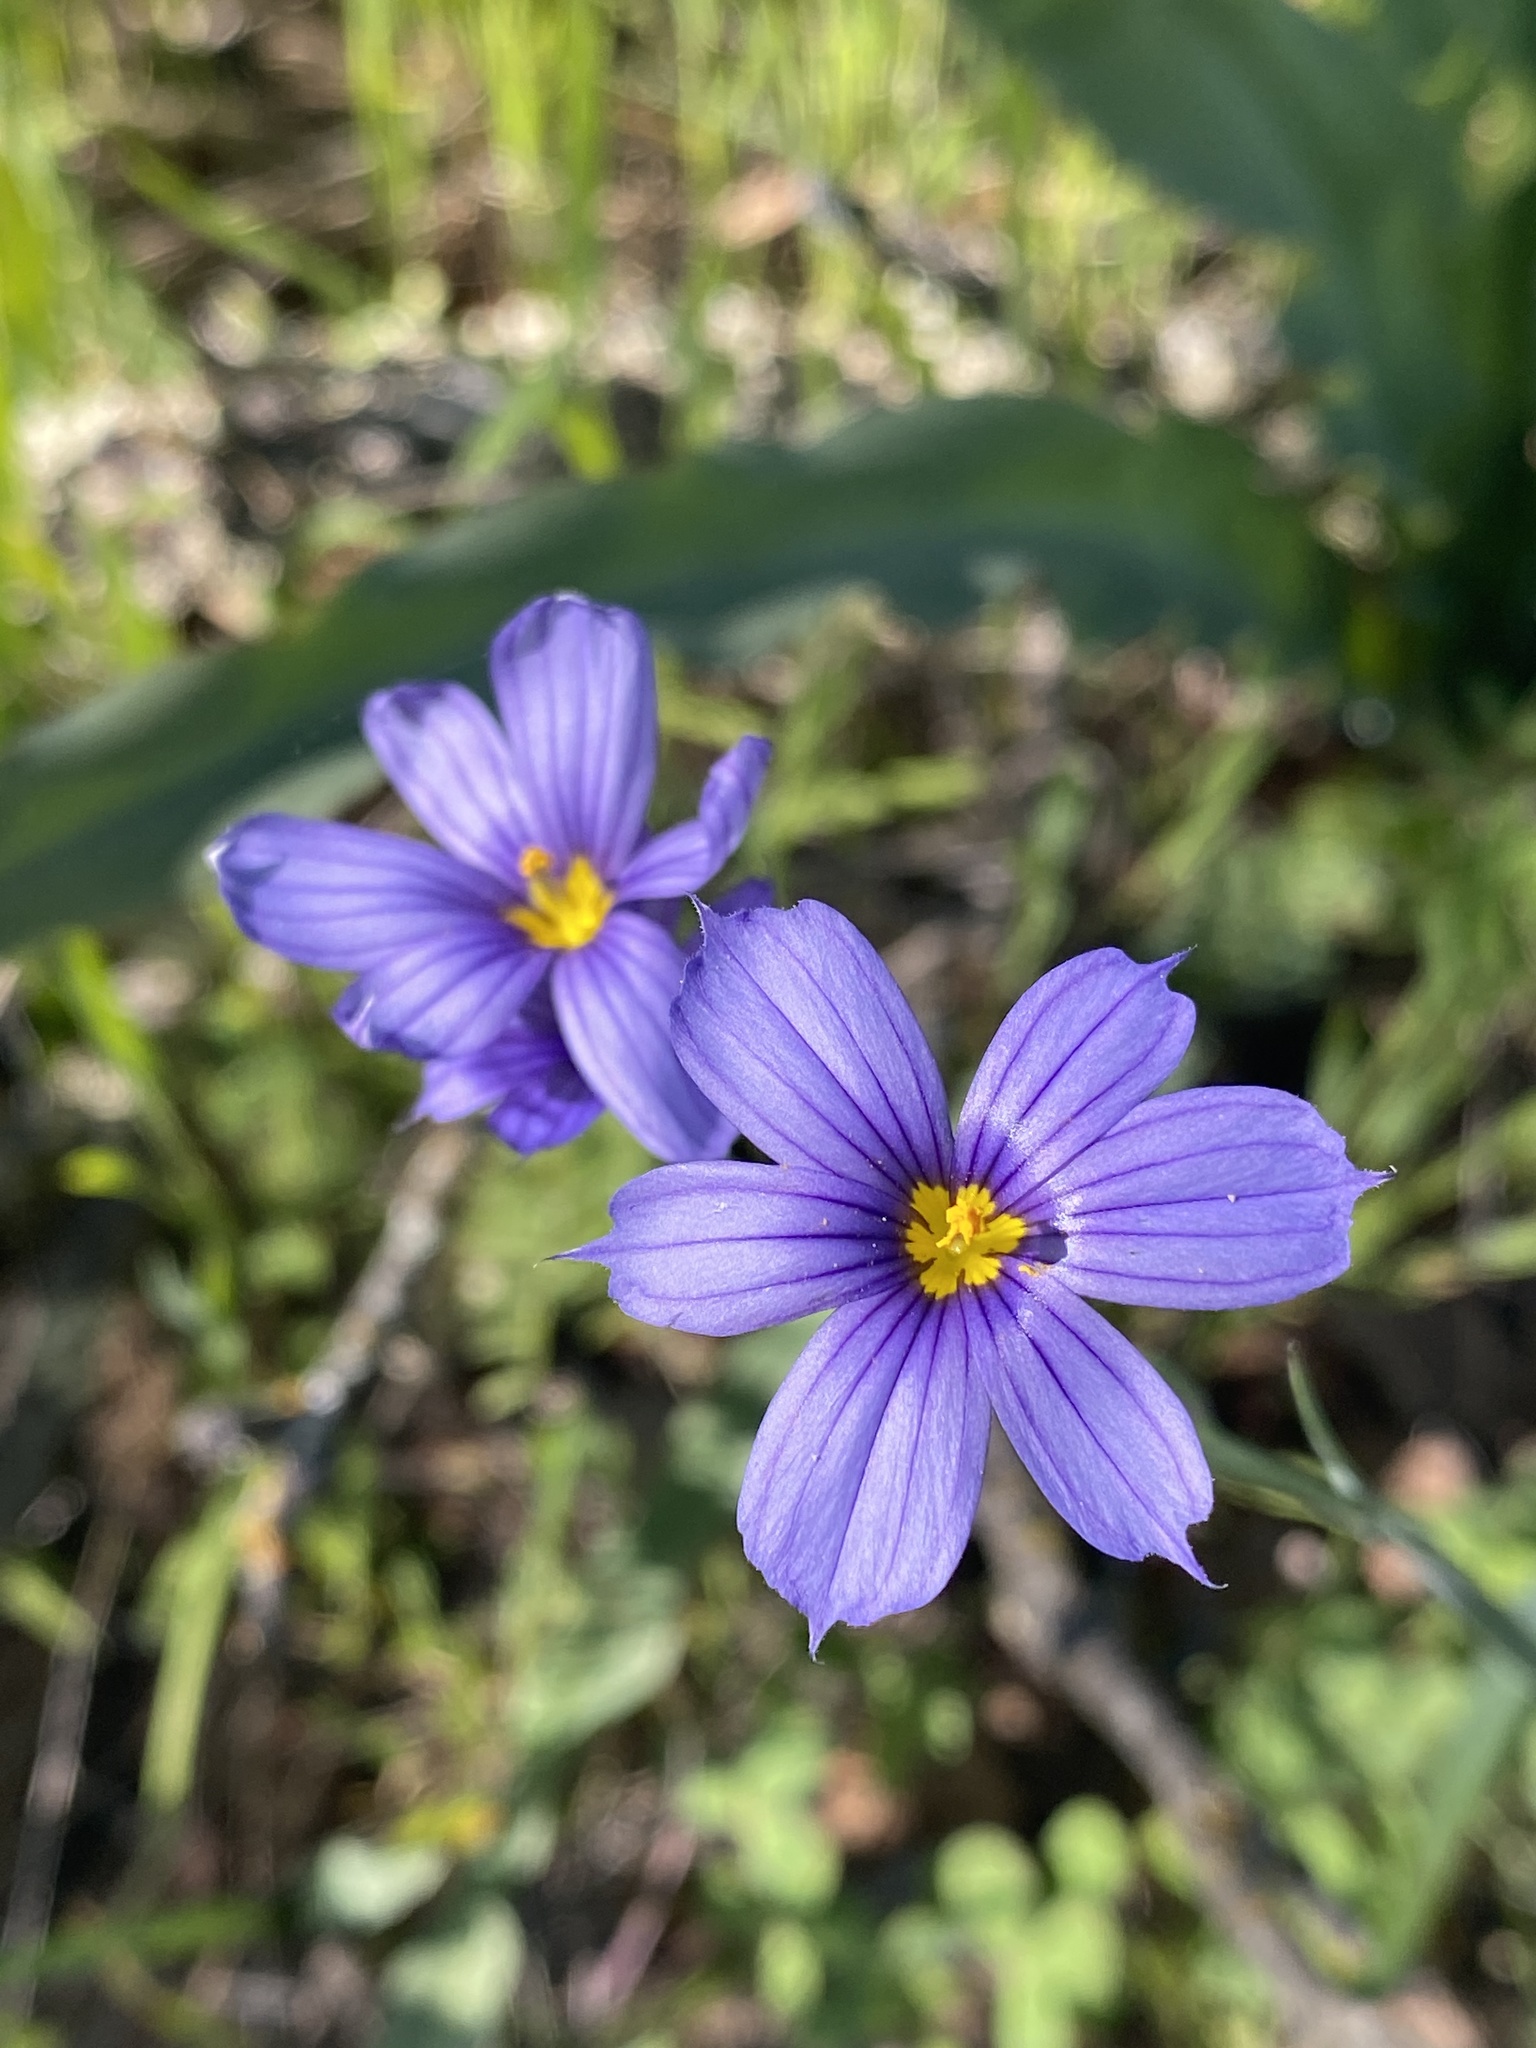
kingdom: Plantae
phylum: Tracheophyta
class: Liliopsida
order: Asparagales
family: Iridaceae
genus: Sisyrinchium
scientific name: Sisyrinchium bellum
